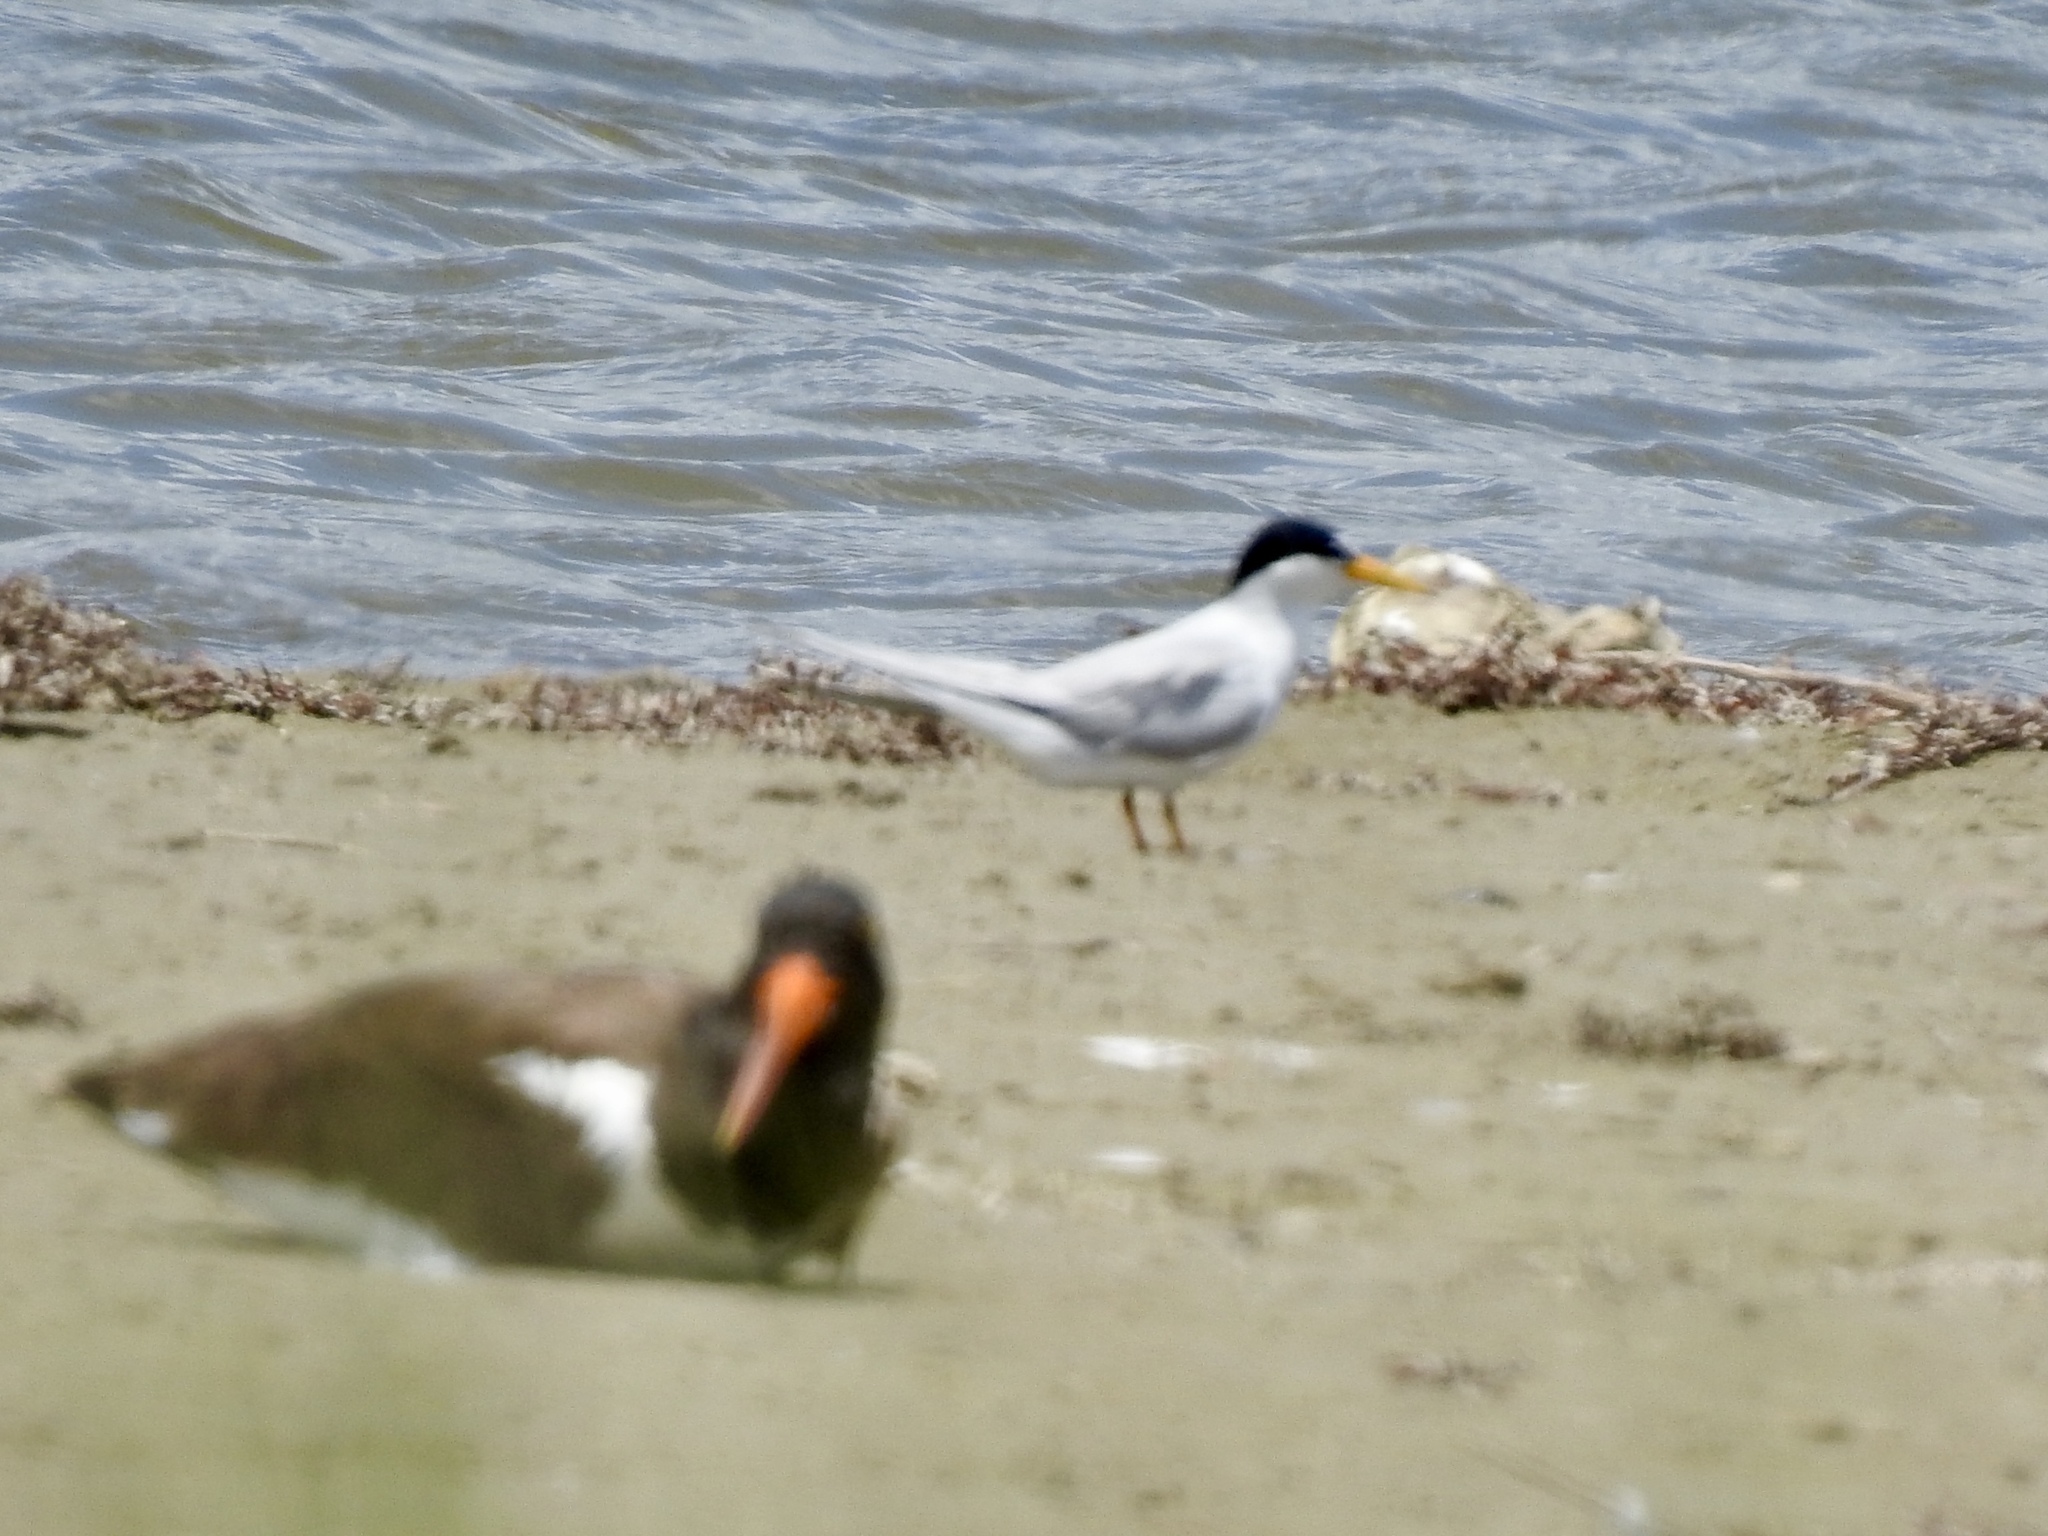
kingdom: Animalia
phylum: Chordata
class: Aves
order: Charadriiformes
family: Haematopodidae
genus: Haematopus
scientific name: Haematopus palliatus
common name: American oystercatcher
